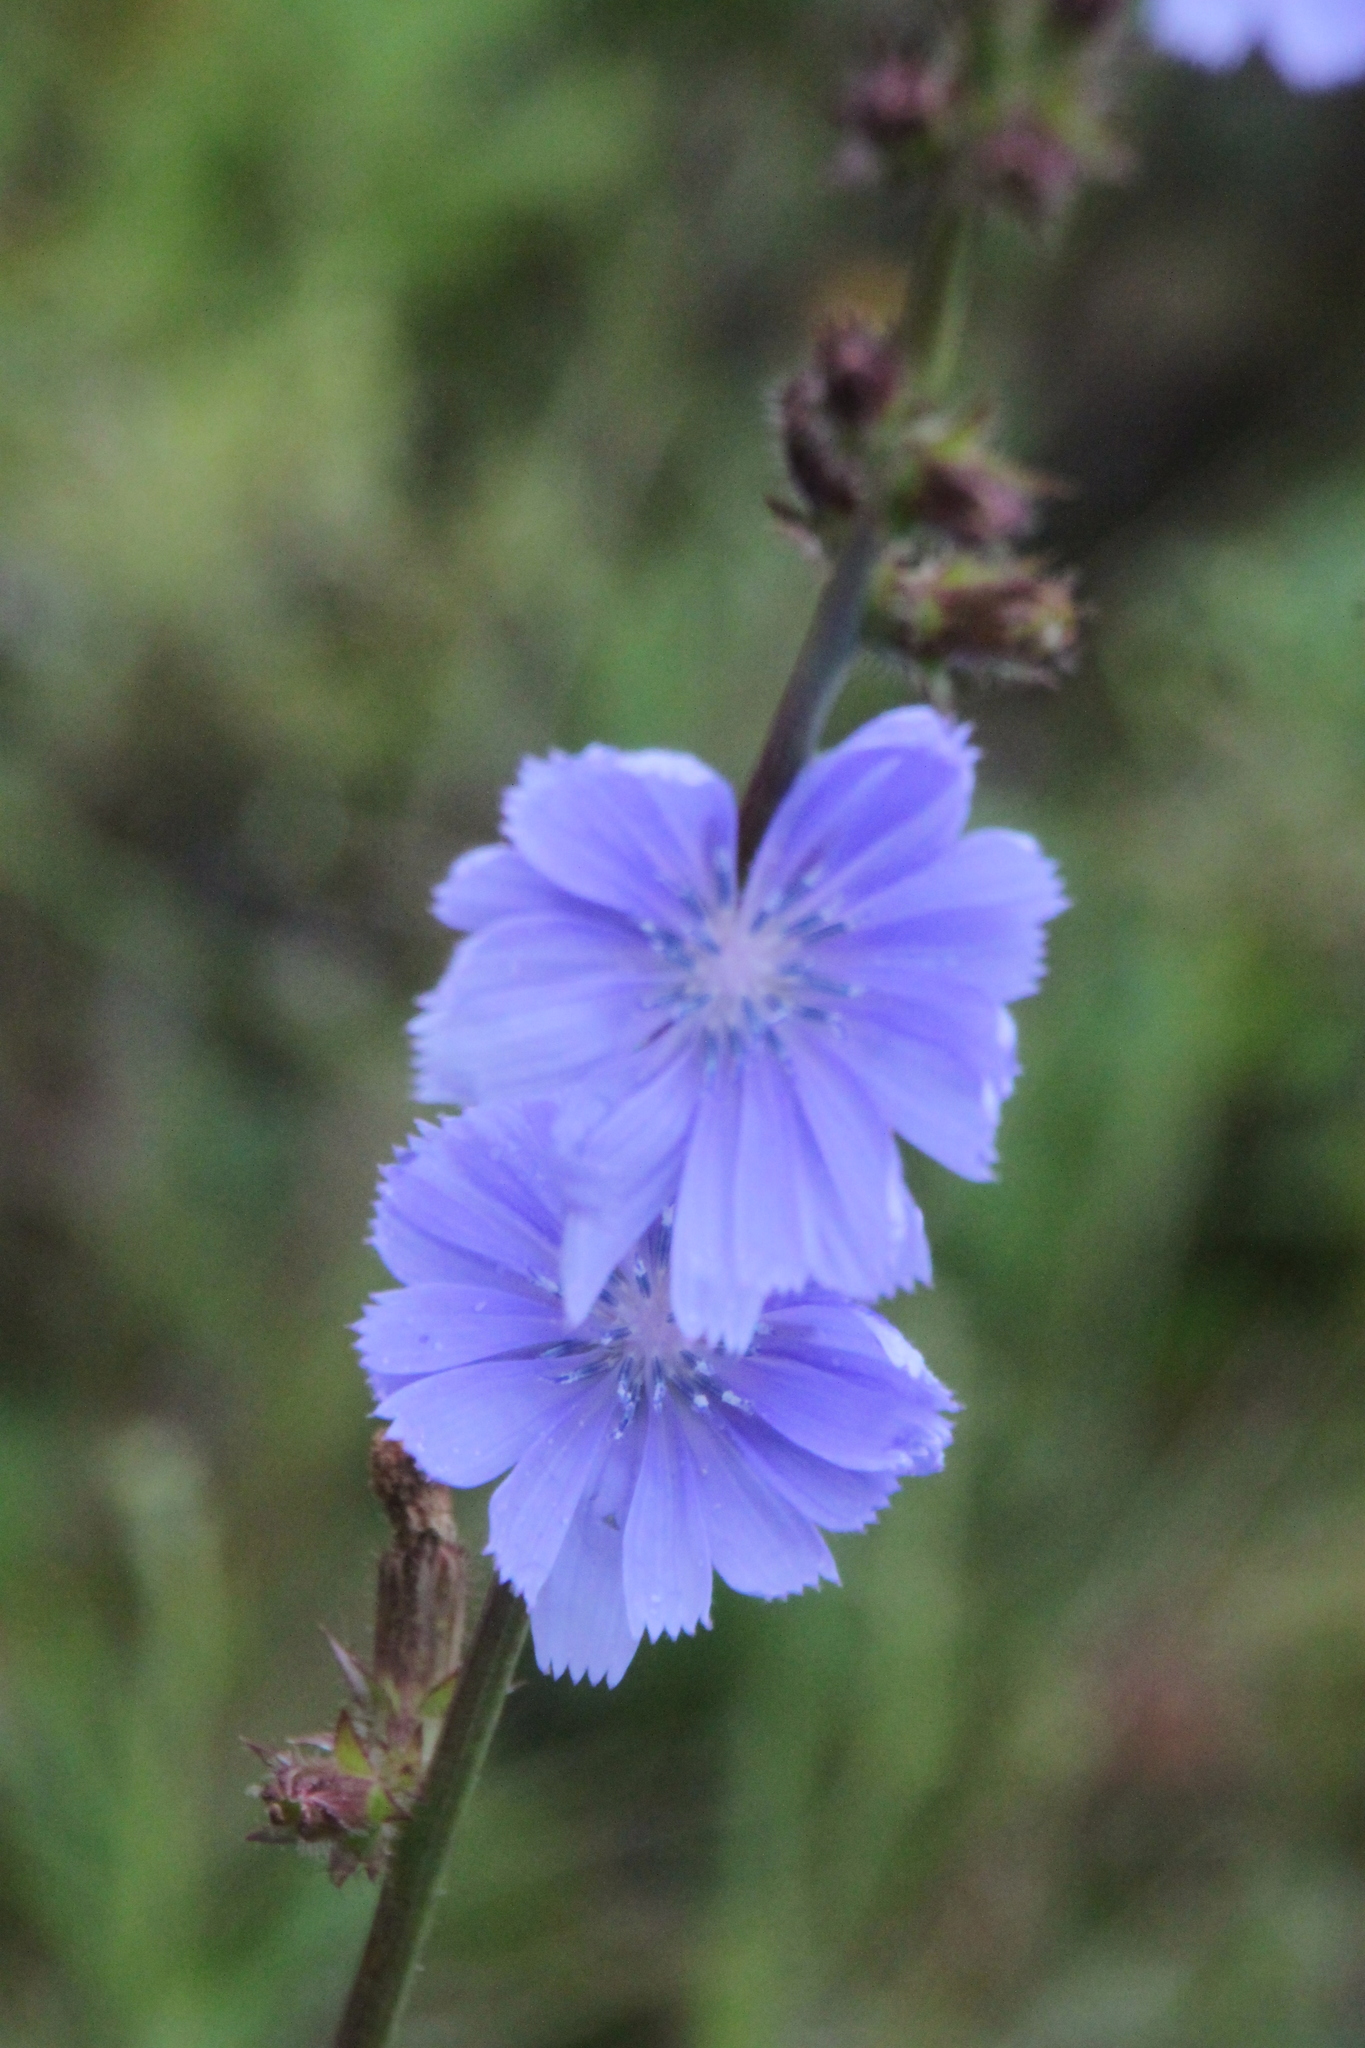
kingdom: Plantae
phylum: Tracheophyta
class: Magnoliopsida
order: Asterales
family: Asteraceae
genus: Cichorium
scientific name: Cichorium intybus
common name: Chicory
